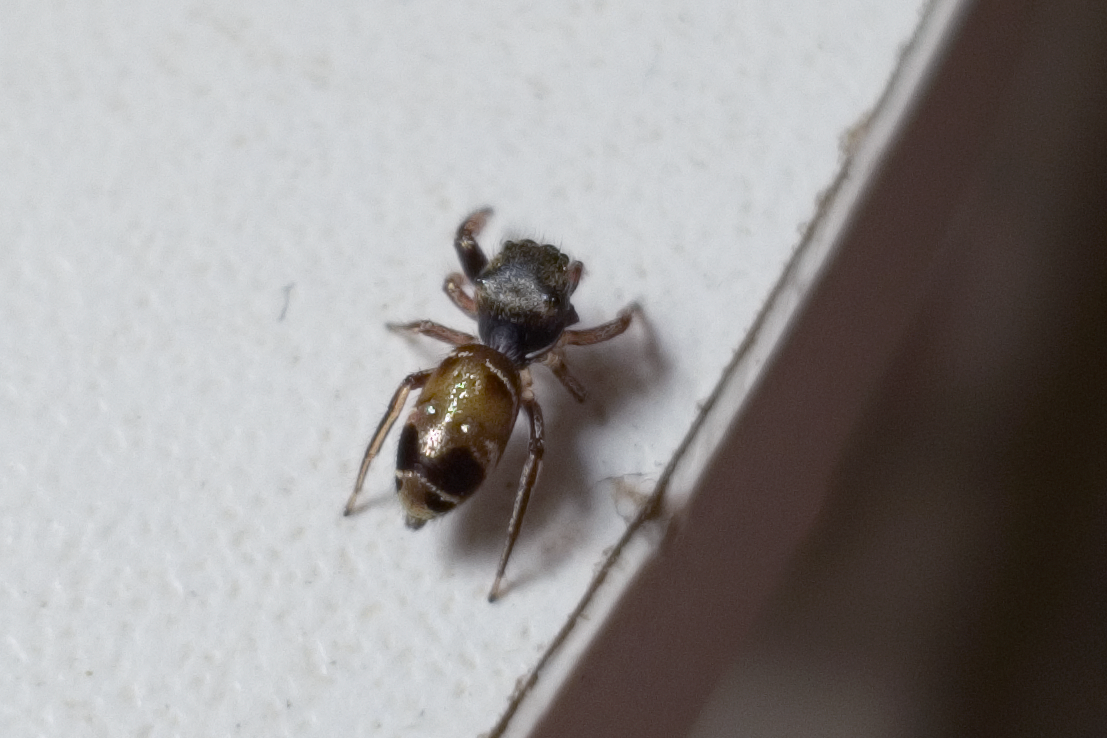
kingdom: Animalia
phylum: Arthropoda
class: Arachnida
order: Araneae
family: Salticidae
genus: Bryantella
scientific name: Bryantella smaragda
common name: Jumping spiders
